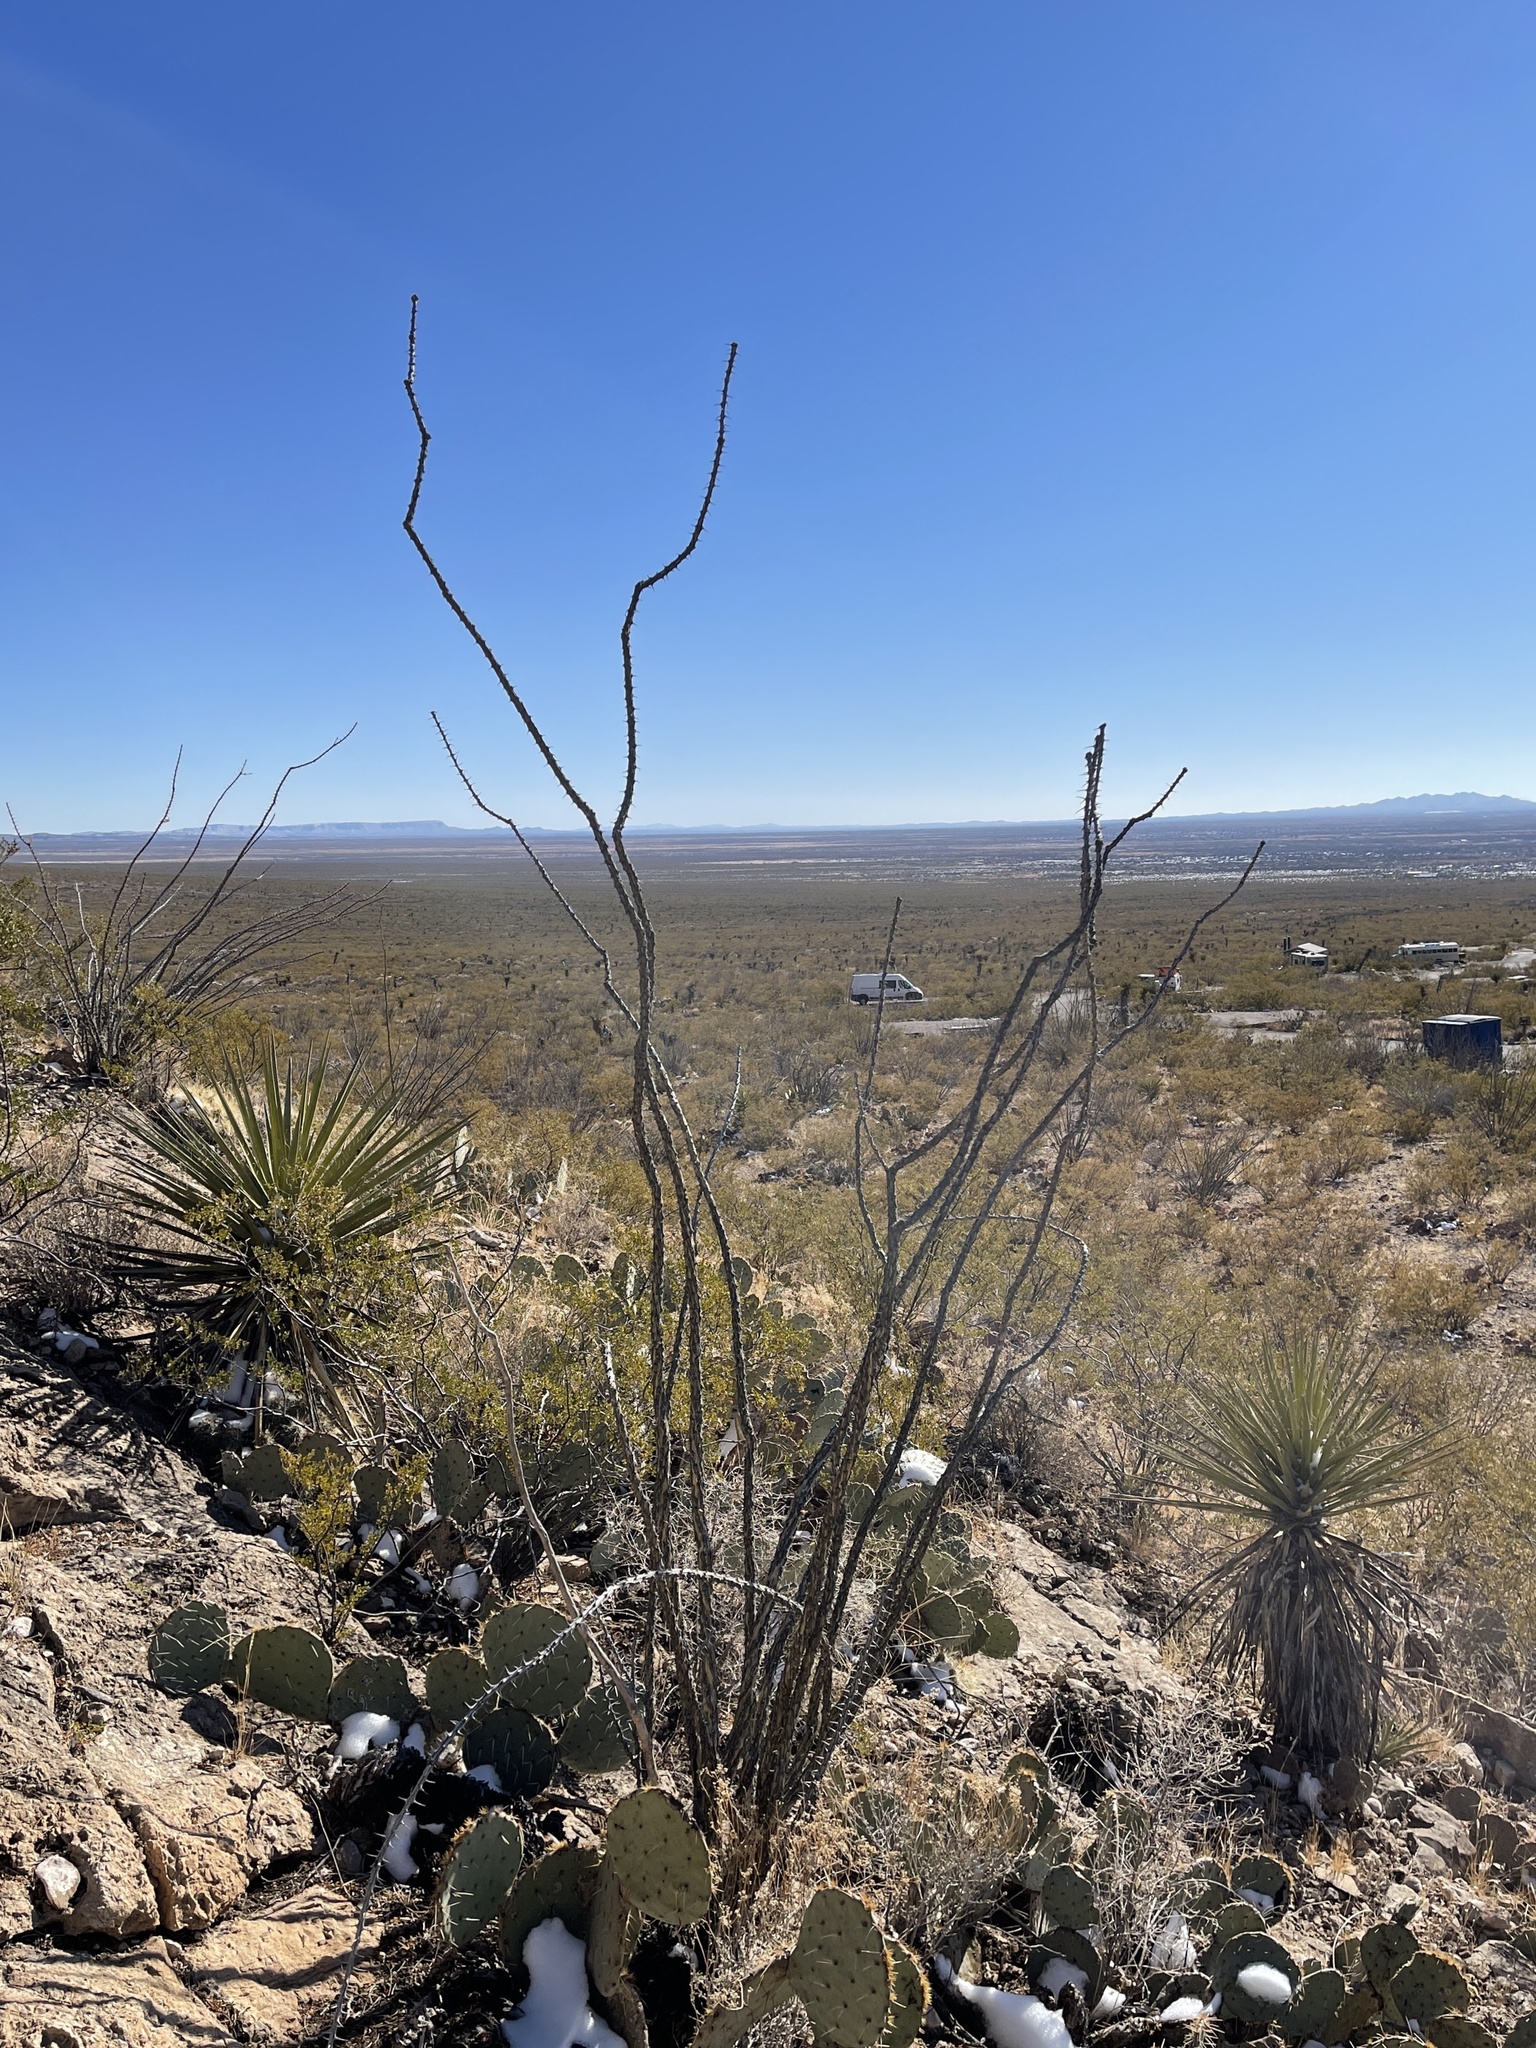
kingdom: Plantae
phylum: Tracheophyta
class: Magnoliopsida
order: Ericales
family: Fouquieriaceae
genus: Fouquieria
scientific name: Fouquieria splendens
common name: Vine-cactus
